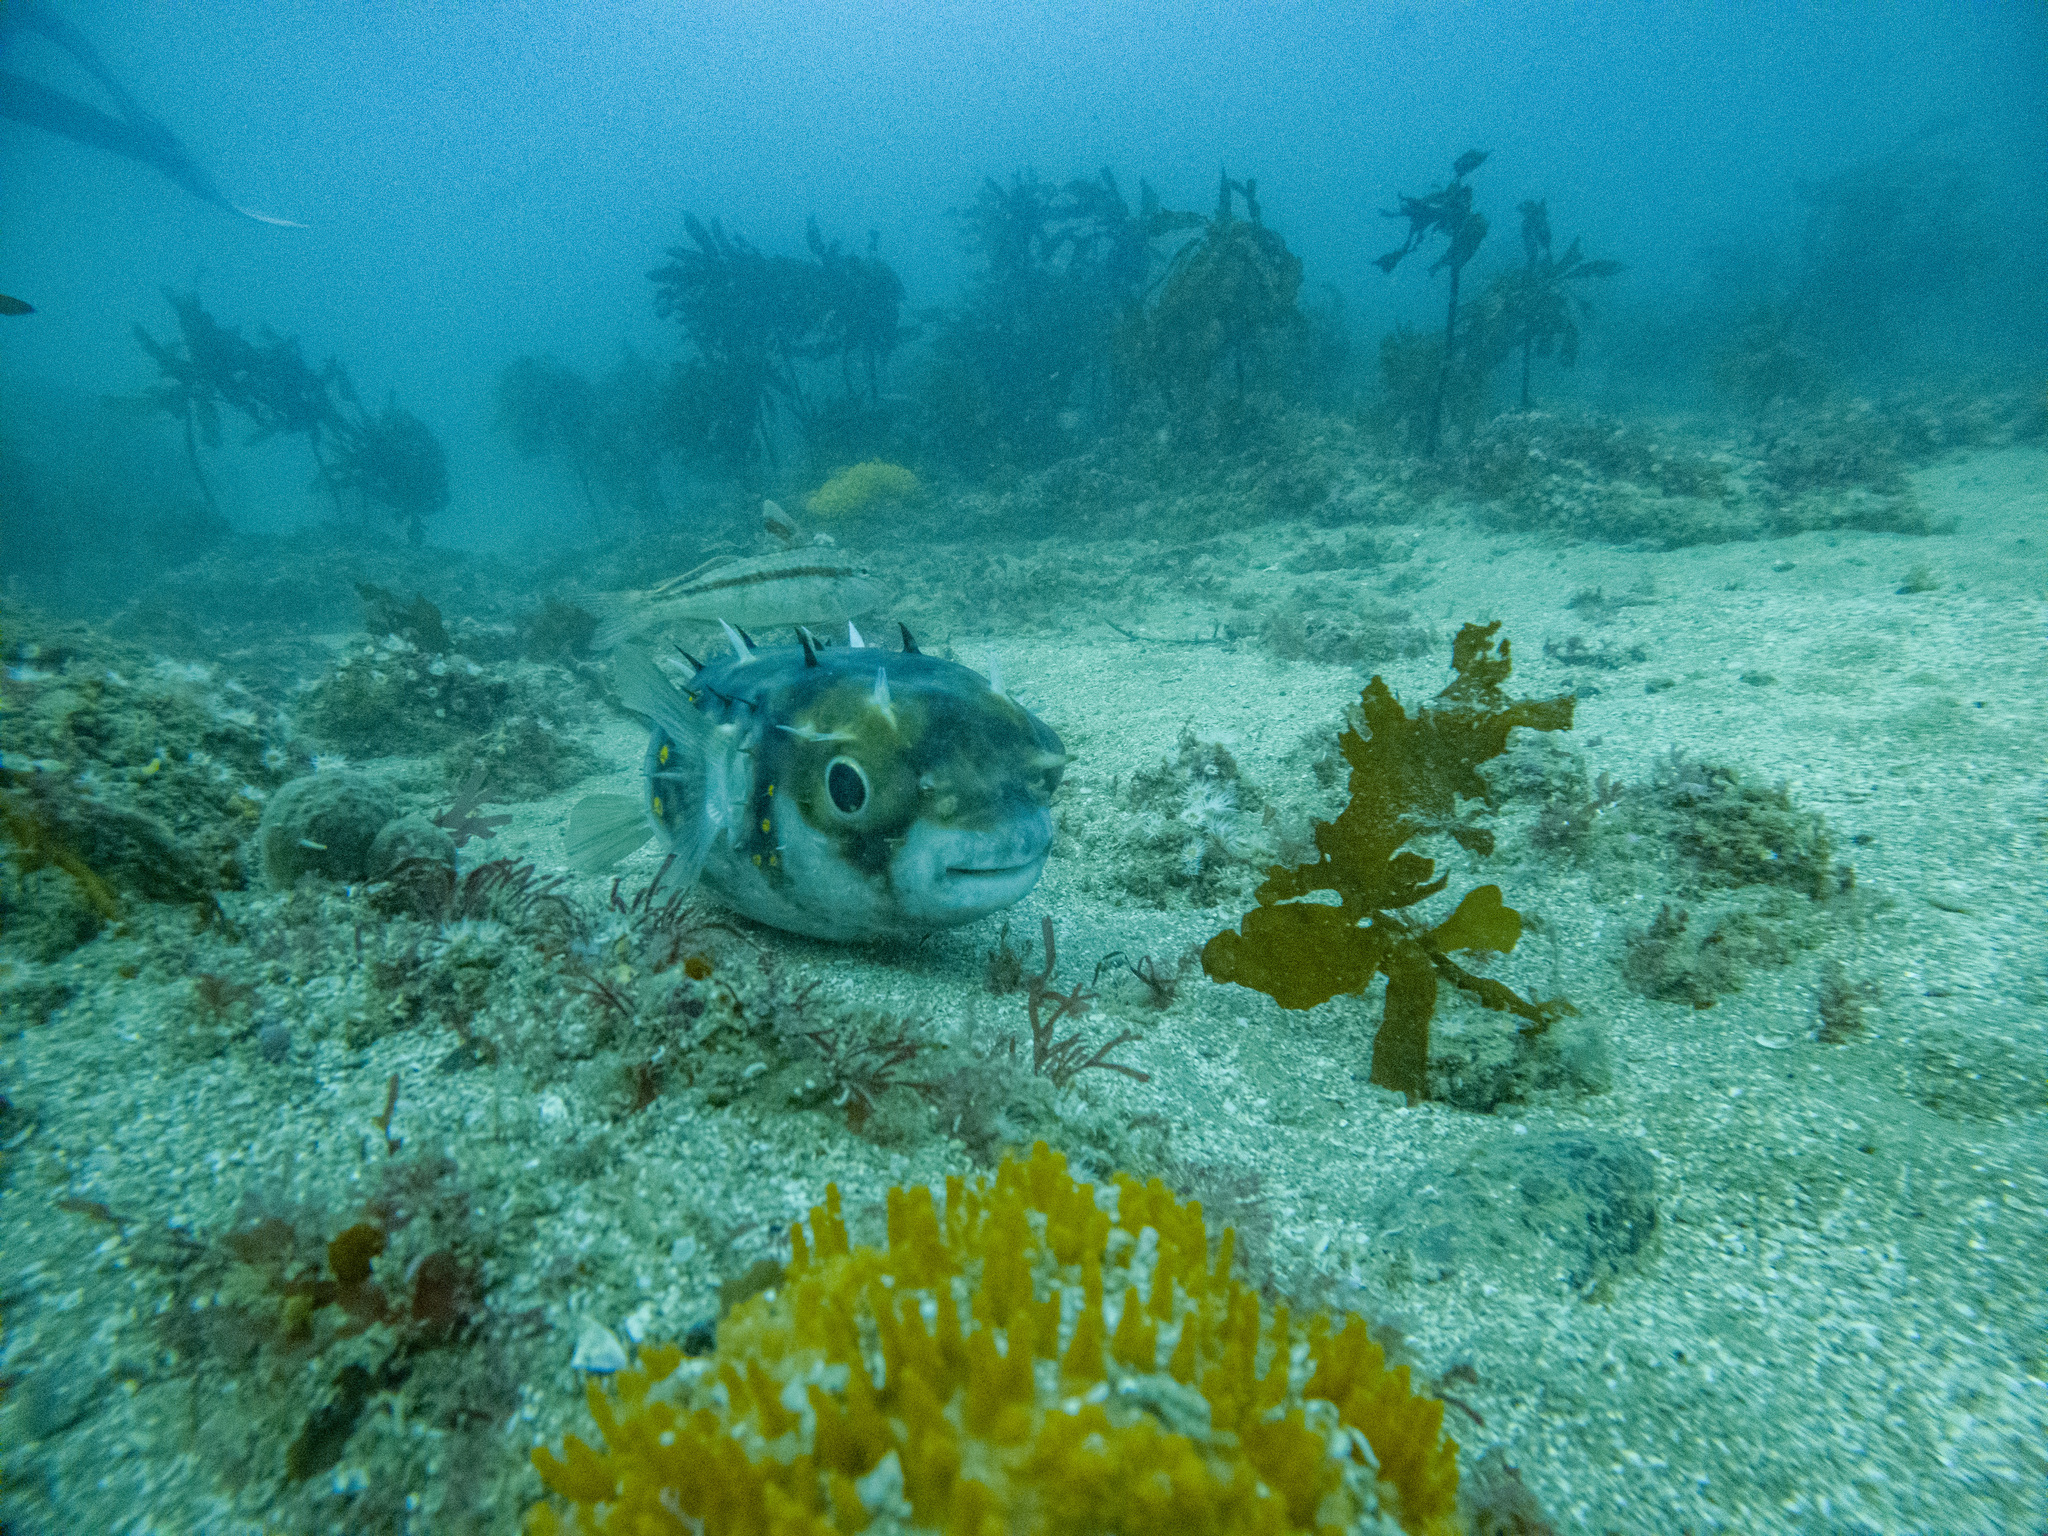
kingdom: Animalia
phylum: Chordata
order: Tetraodontiformes
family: Diodontidae
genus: Allomycterus
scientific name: Allomycterus pilatus
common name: No common name
